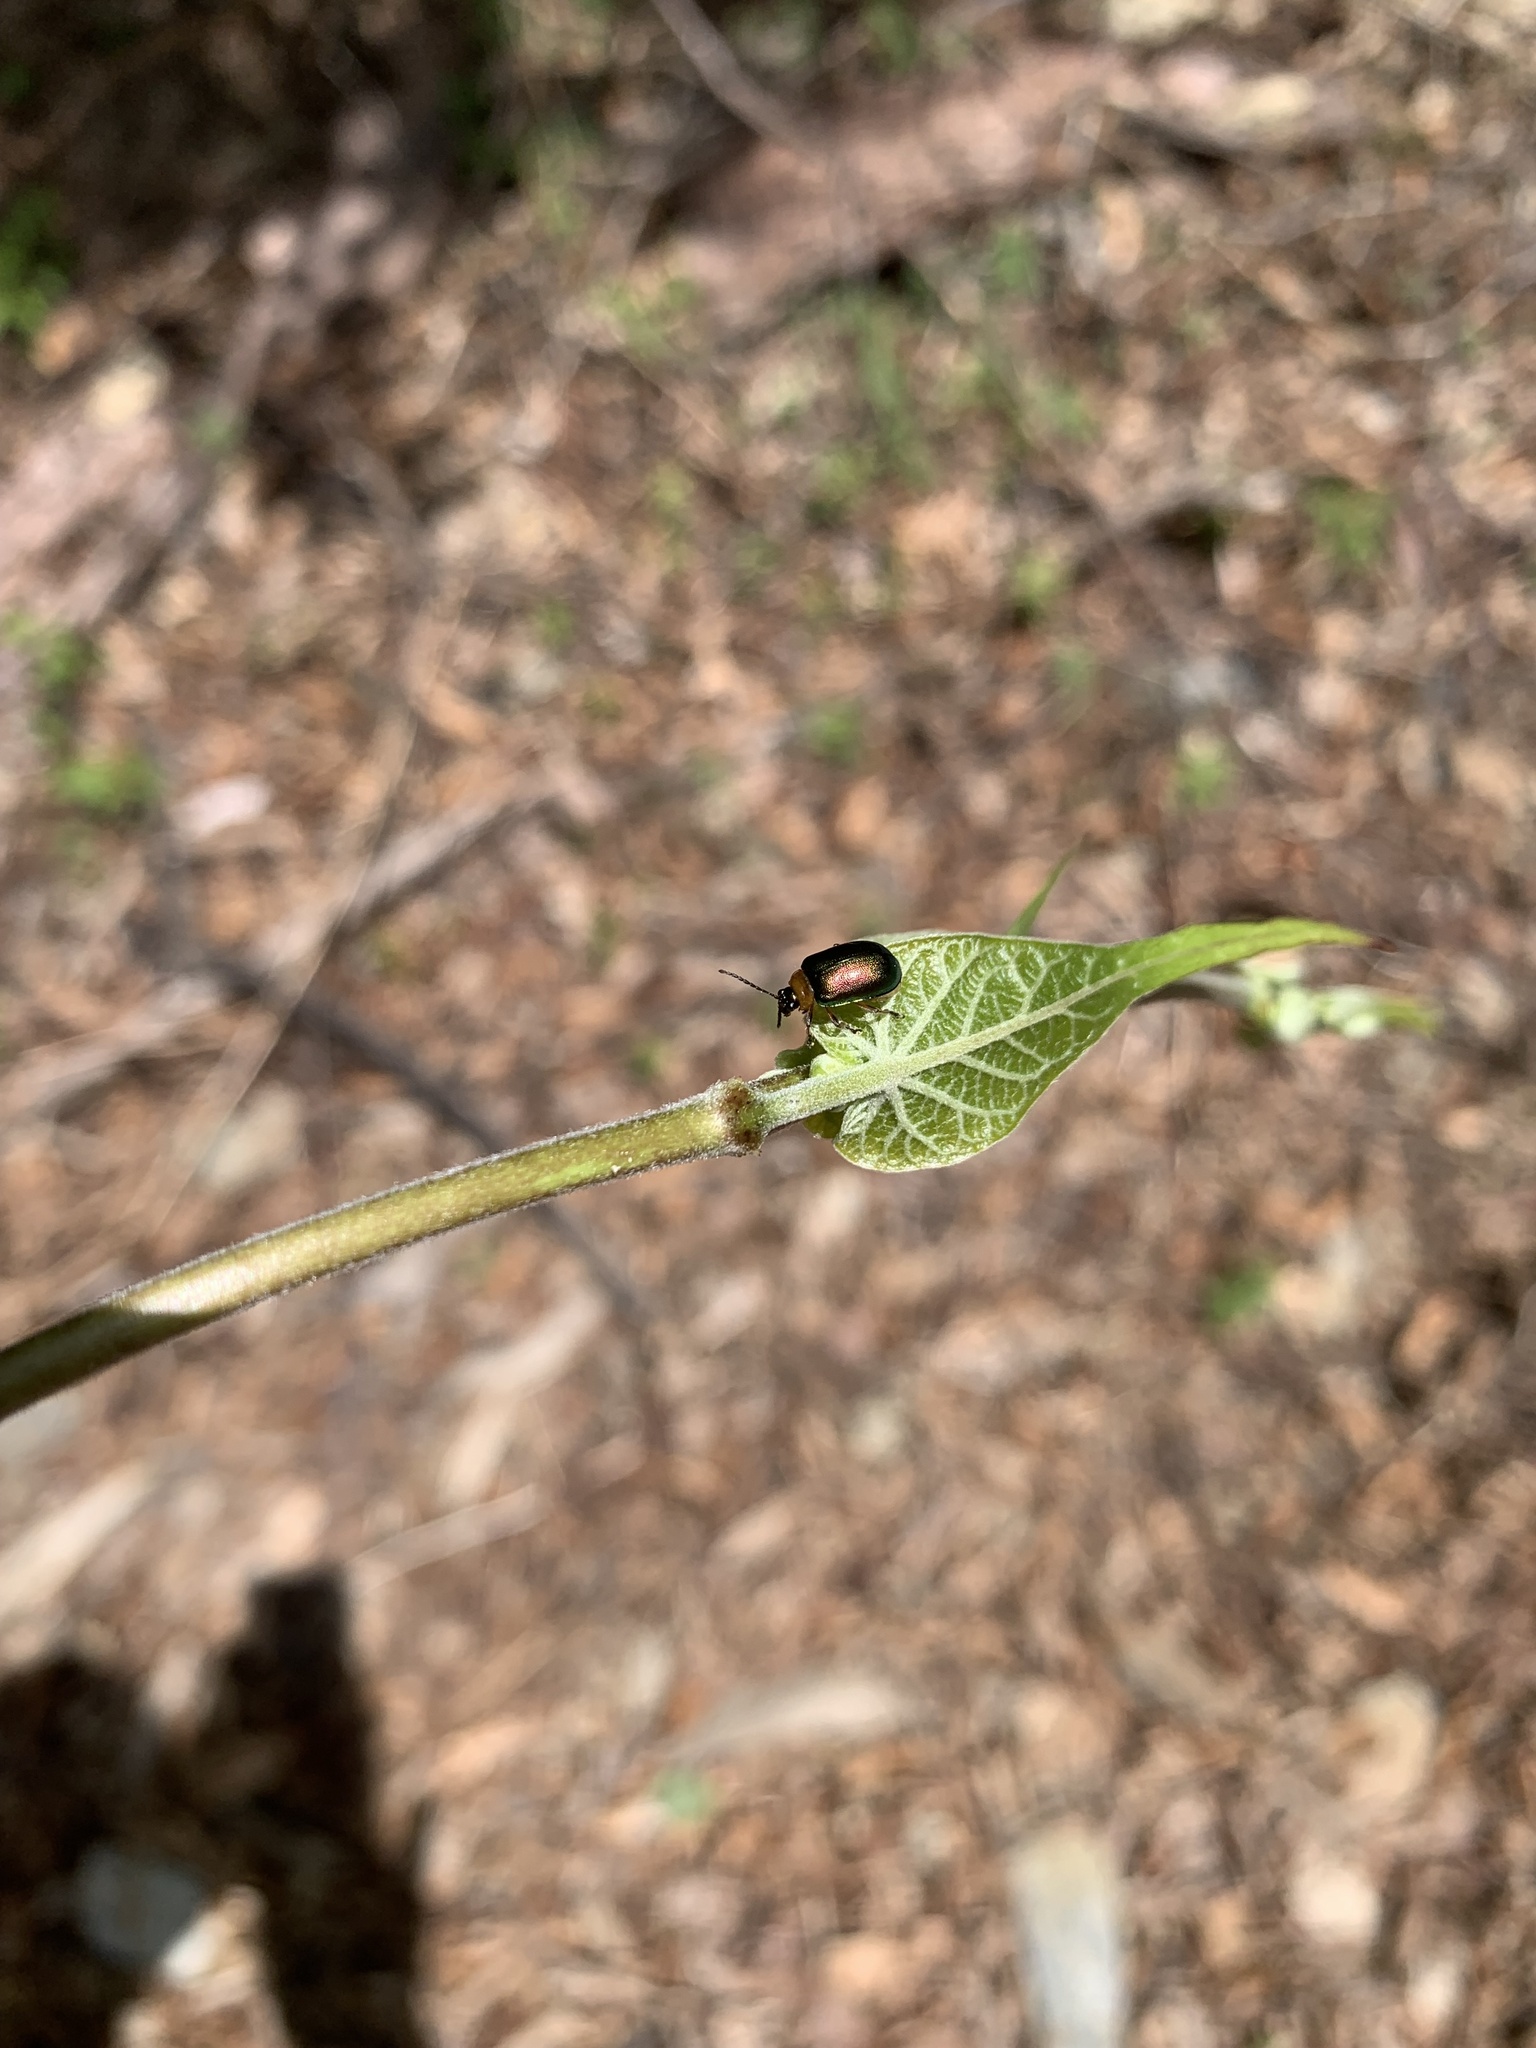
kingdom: Animalia
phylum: Arthropoda
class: Insecta
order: Coleoptera
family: Chrysomelidae
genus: Agelasa
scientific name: Agelasa nigriceps
